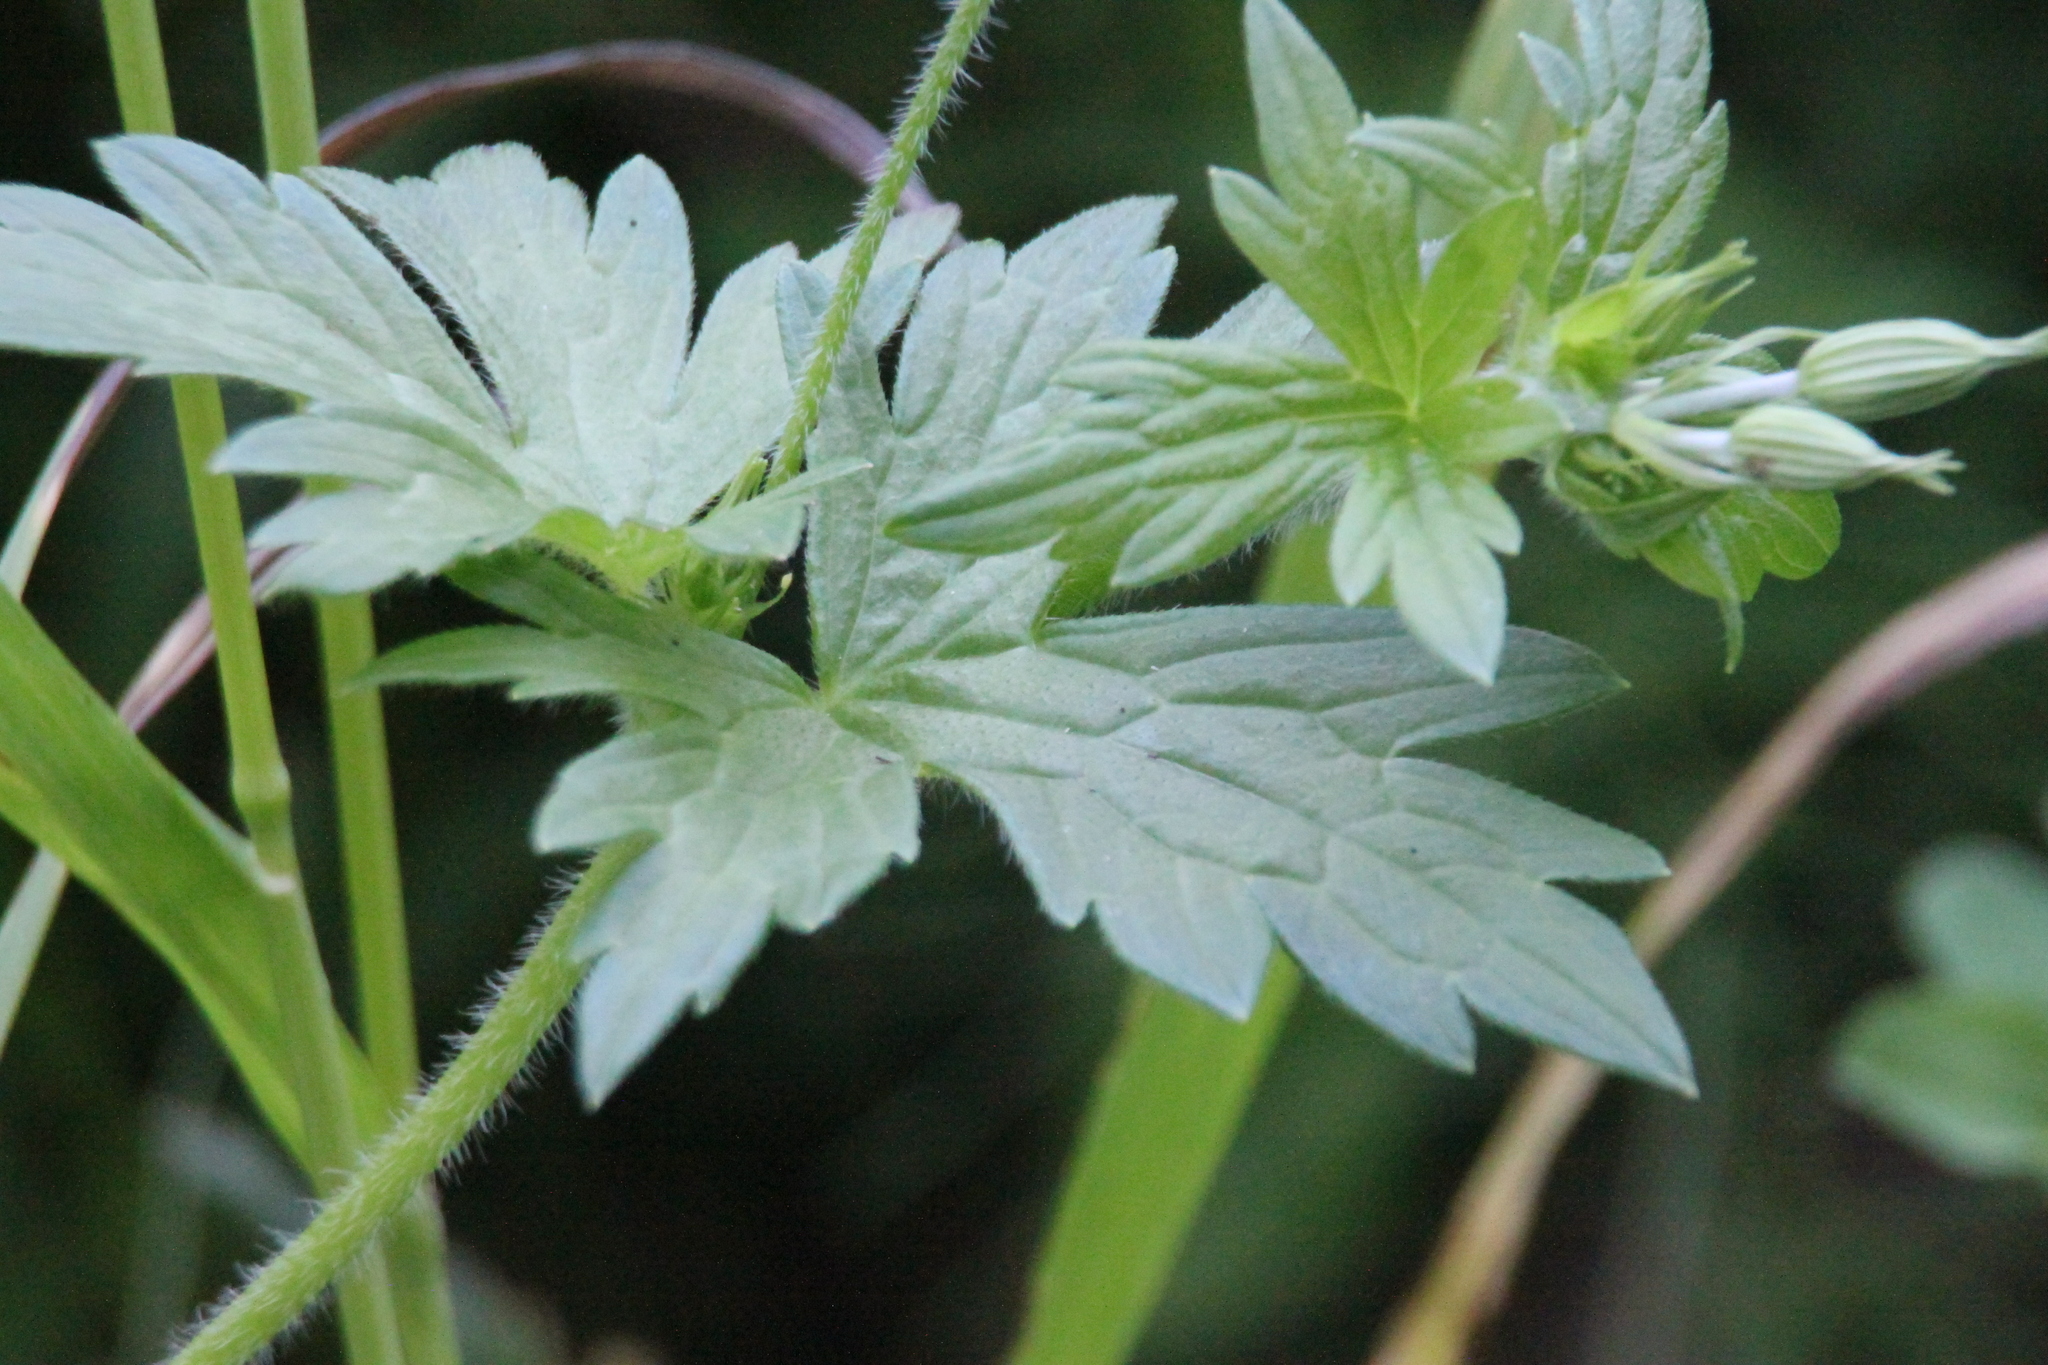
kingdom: Plantae
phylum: Tracheophyta
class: Magnoliopsida
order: Geraniales
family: Geraniaceae
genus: Geranium
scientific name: Geranium palustre
